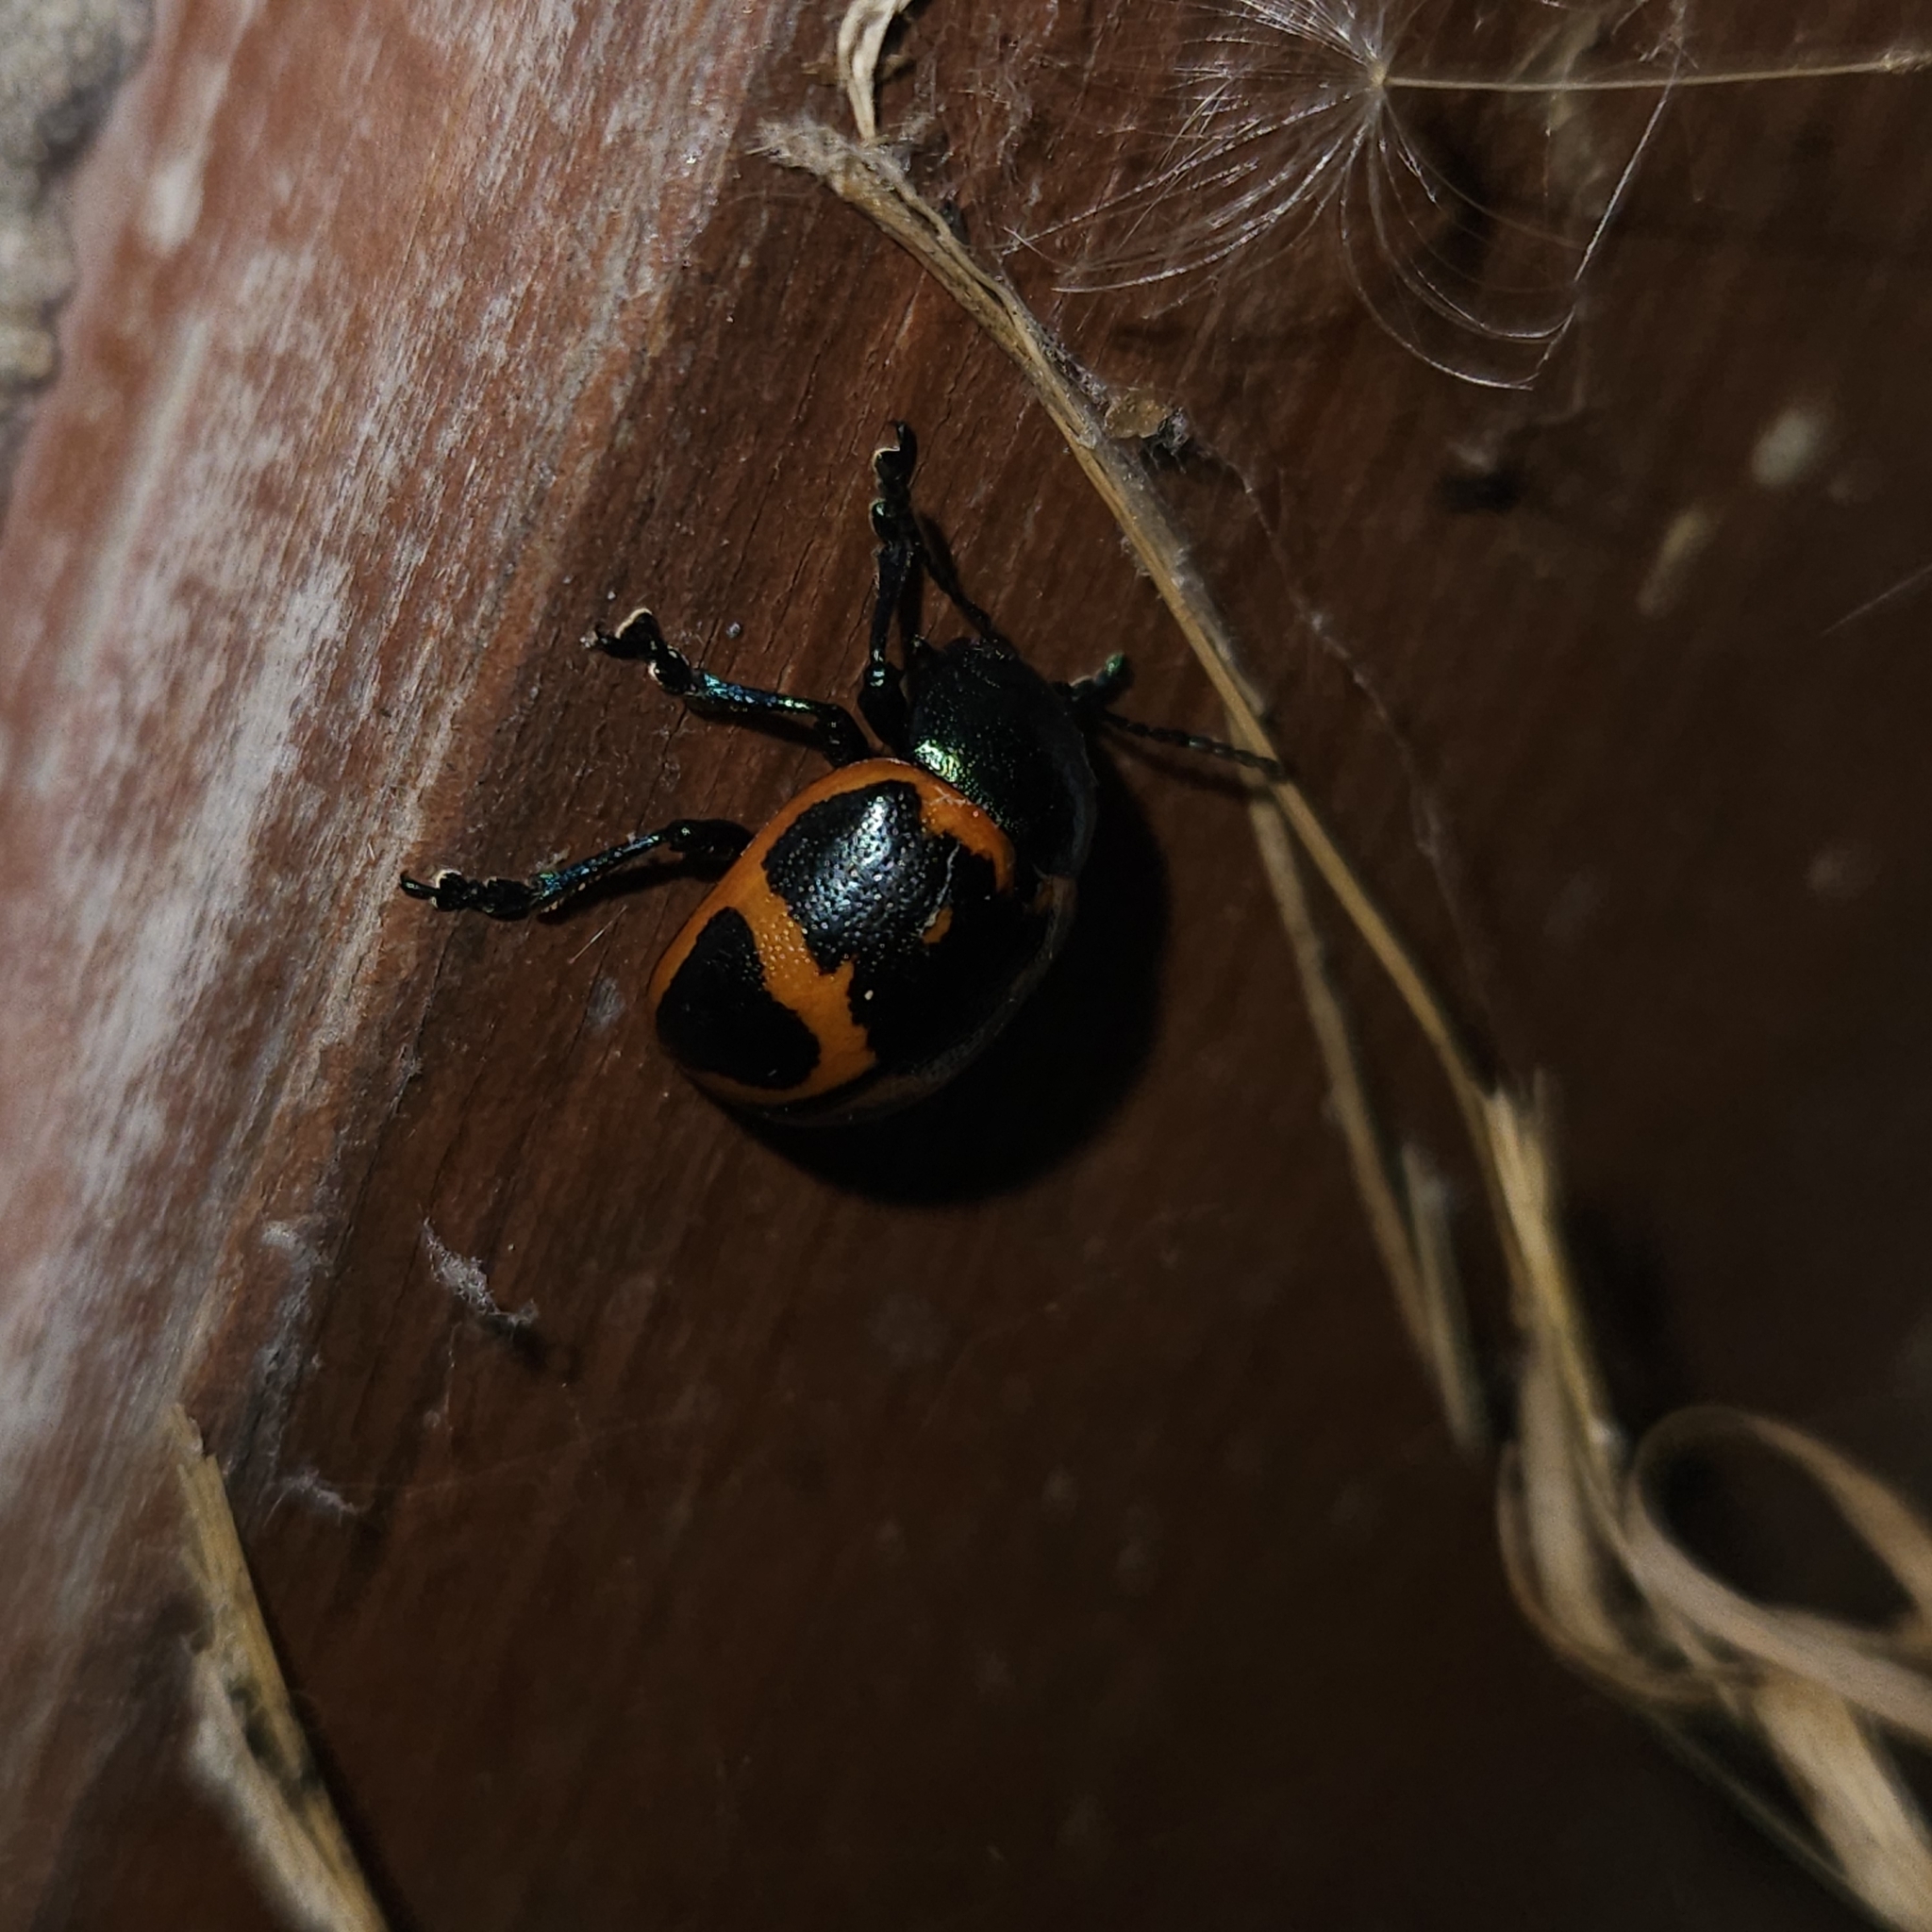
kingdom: Animalia
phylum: Arthropoda
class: Insecta
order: Coleoptera
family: Chrysomelidae
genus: Labidomera
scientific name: Labidomera clivicollis
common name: Swamp milkweed leaf beetle
